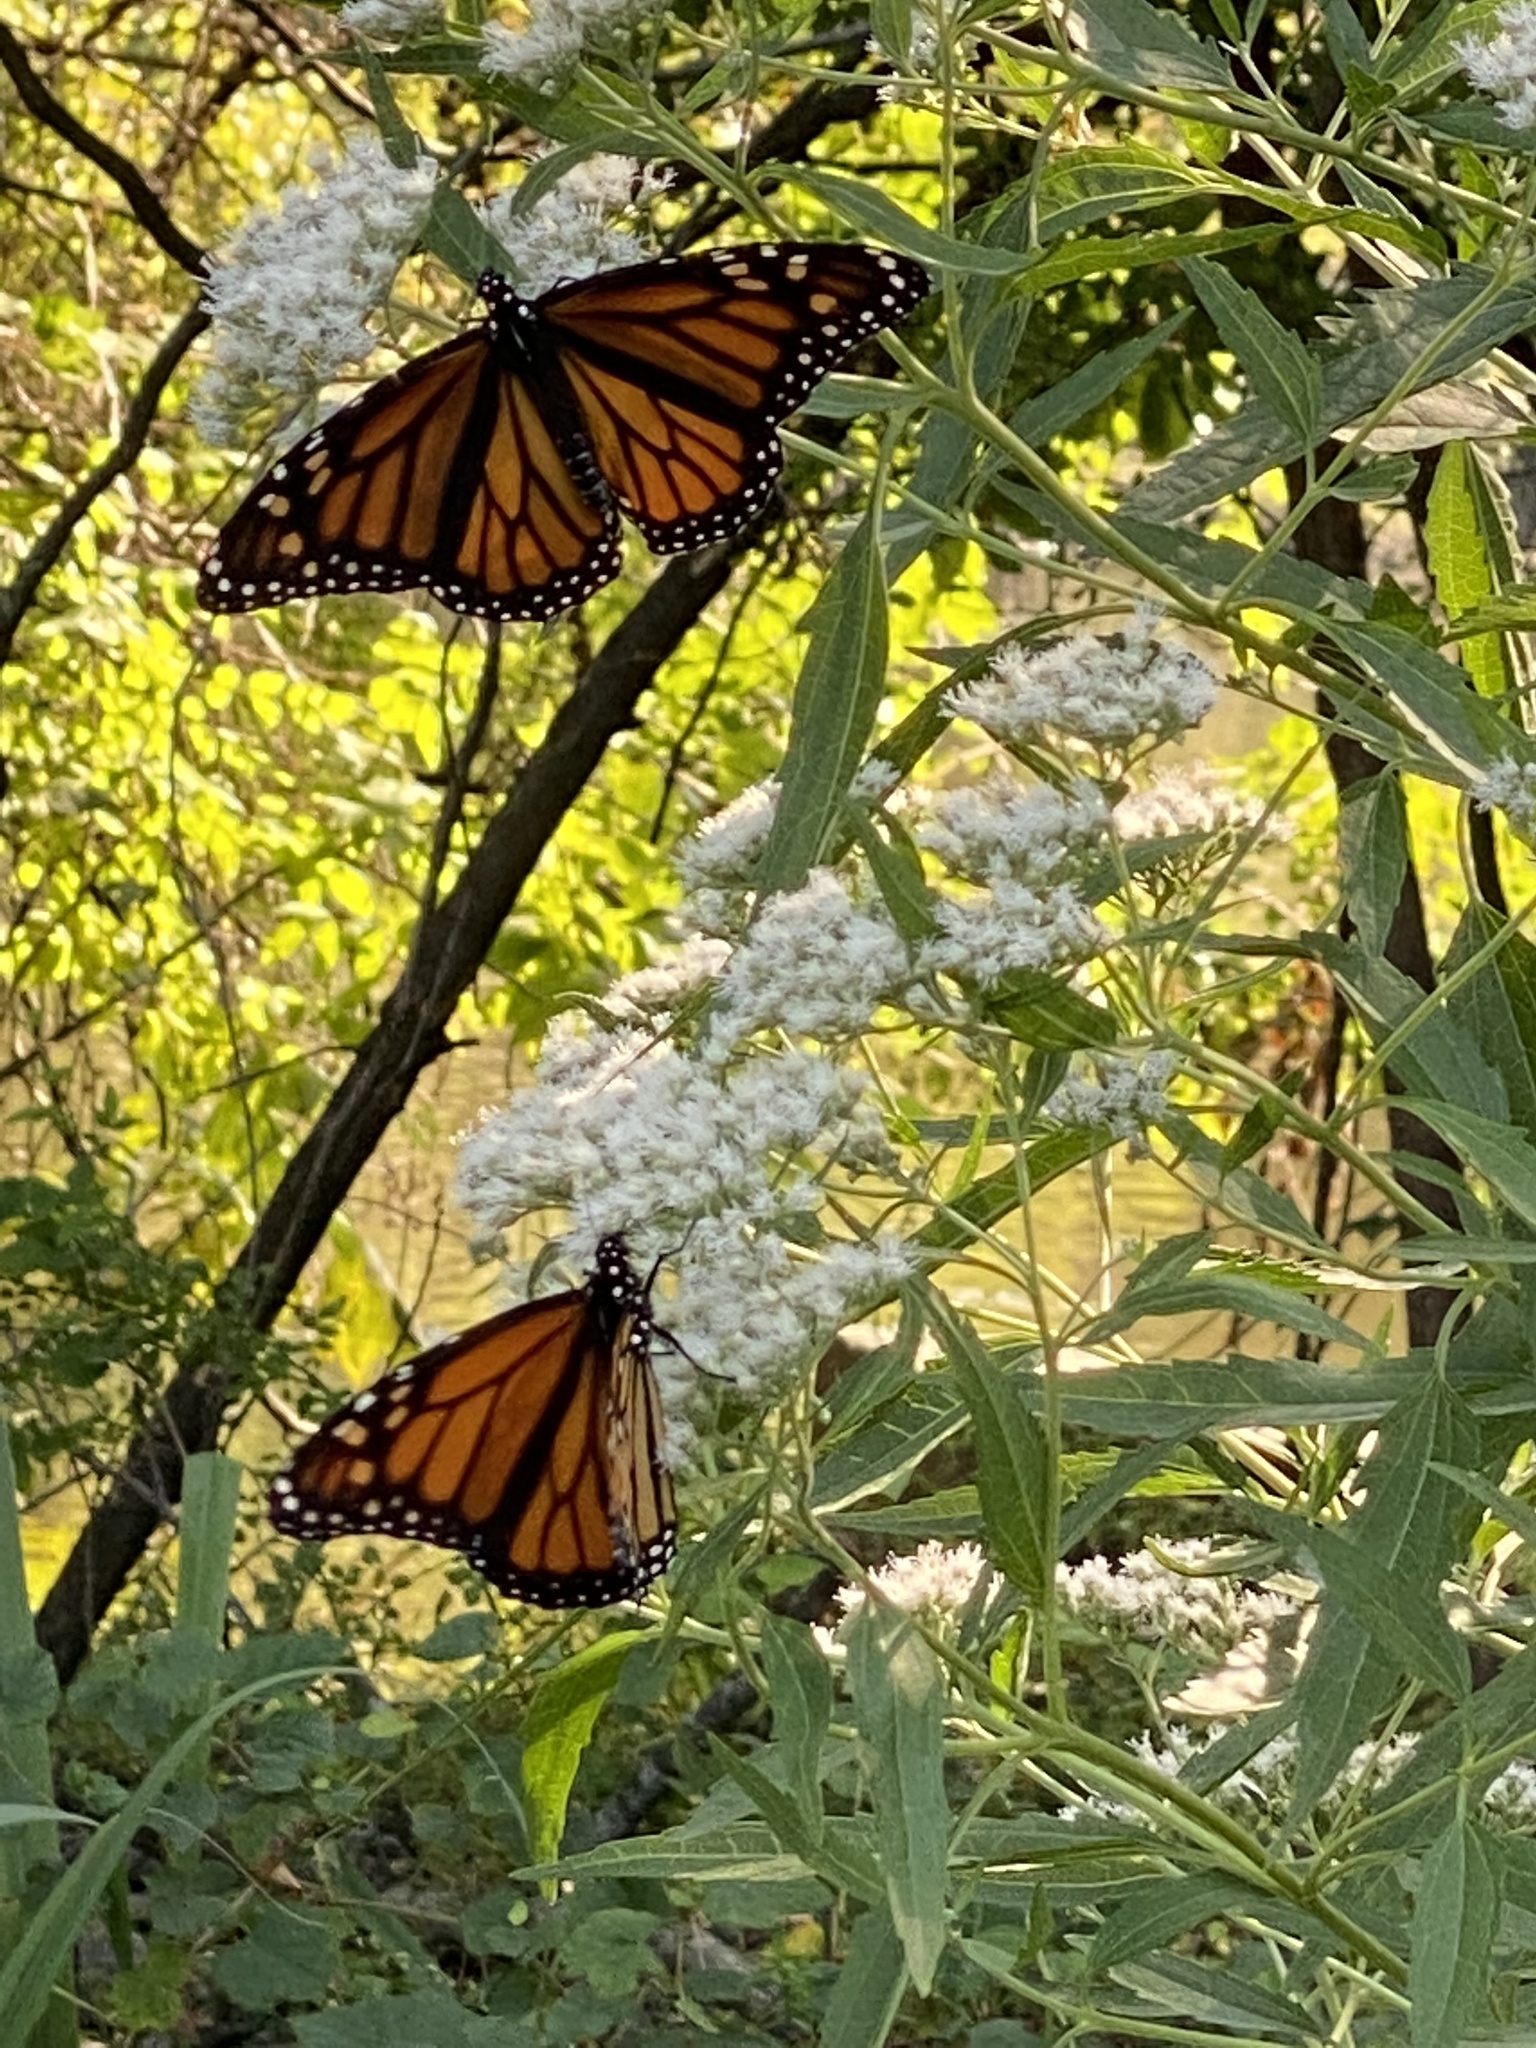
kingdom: Animalia
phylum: Arthropoda
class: Insecta
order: Lepidoptera
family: Nymphalidae
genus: Danaus
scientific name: Danaus plexippus
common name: Monarch
